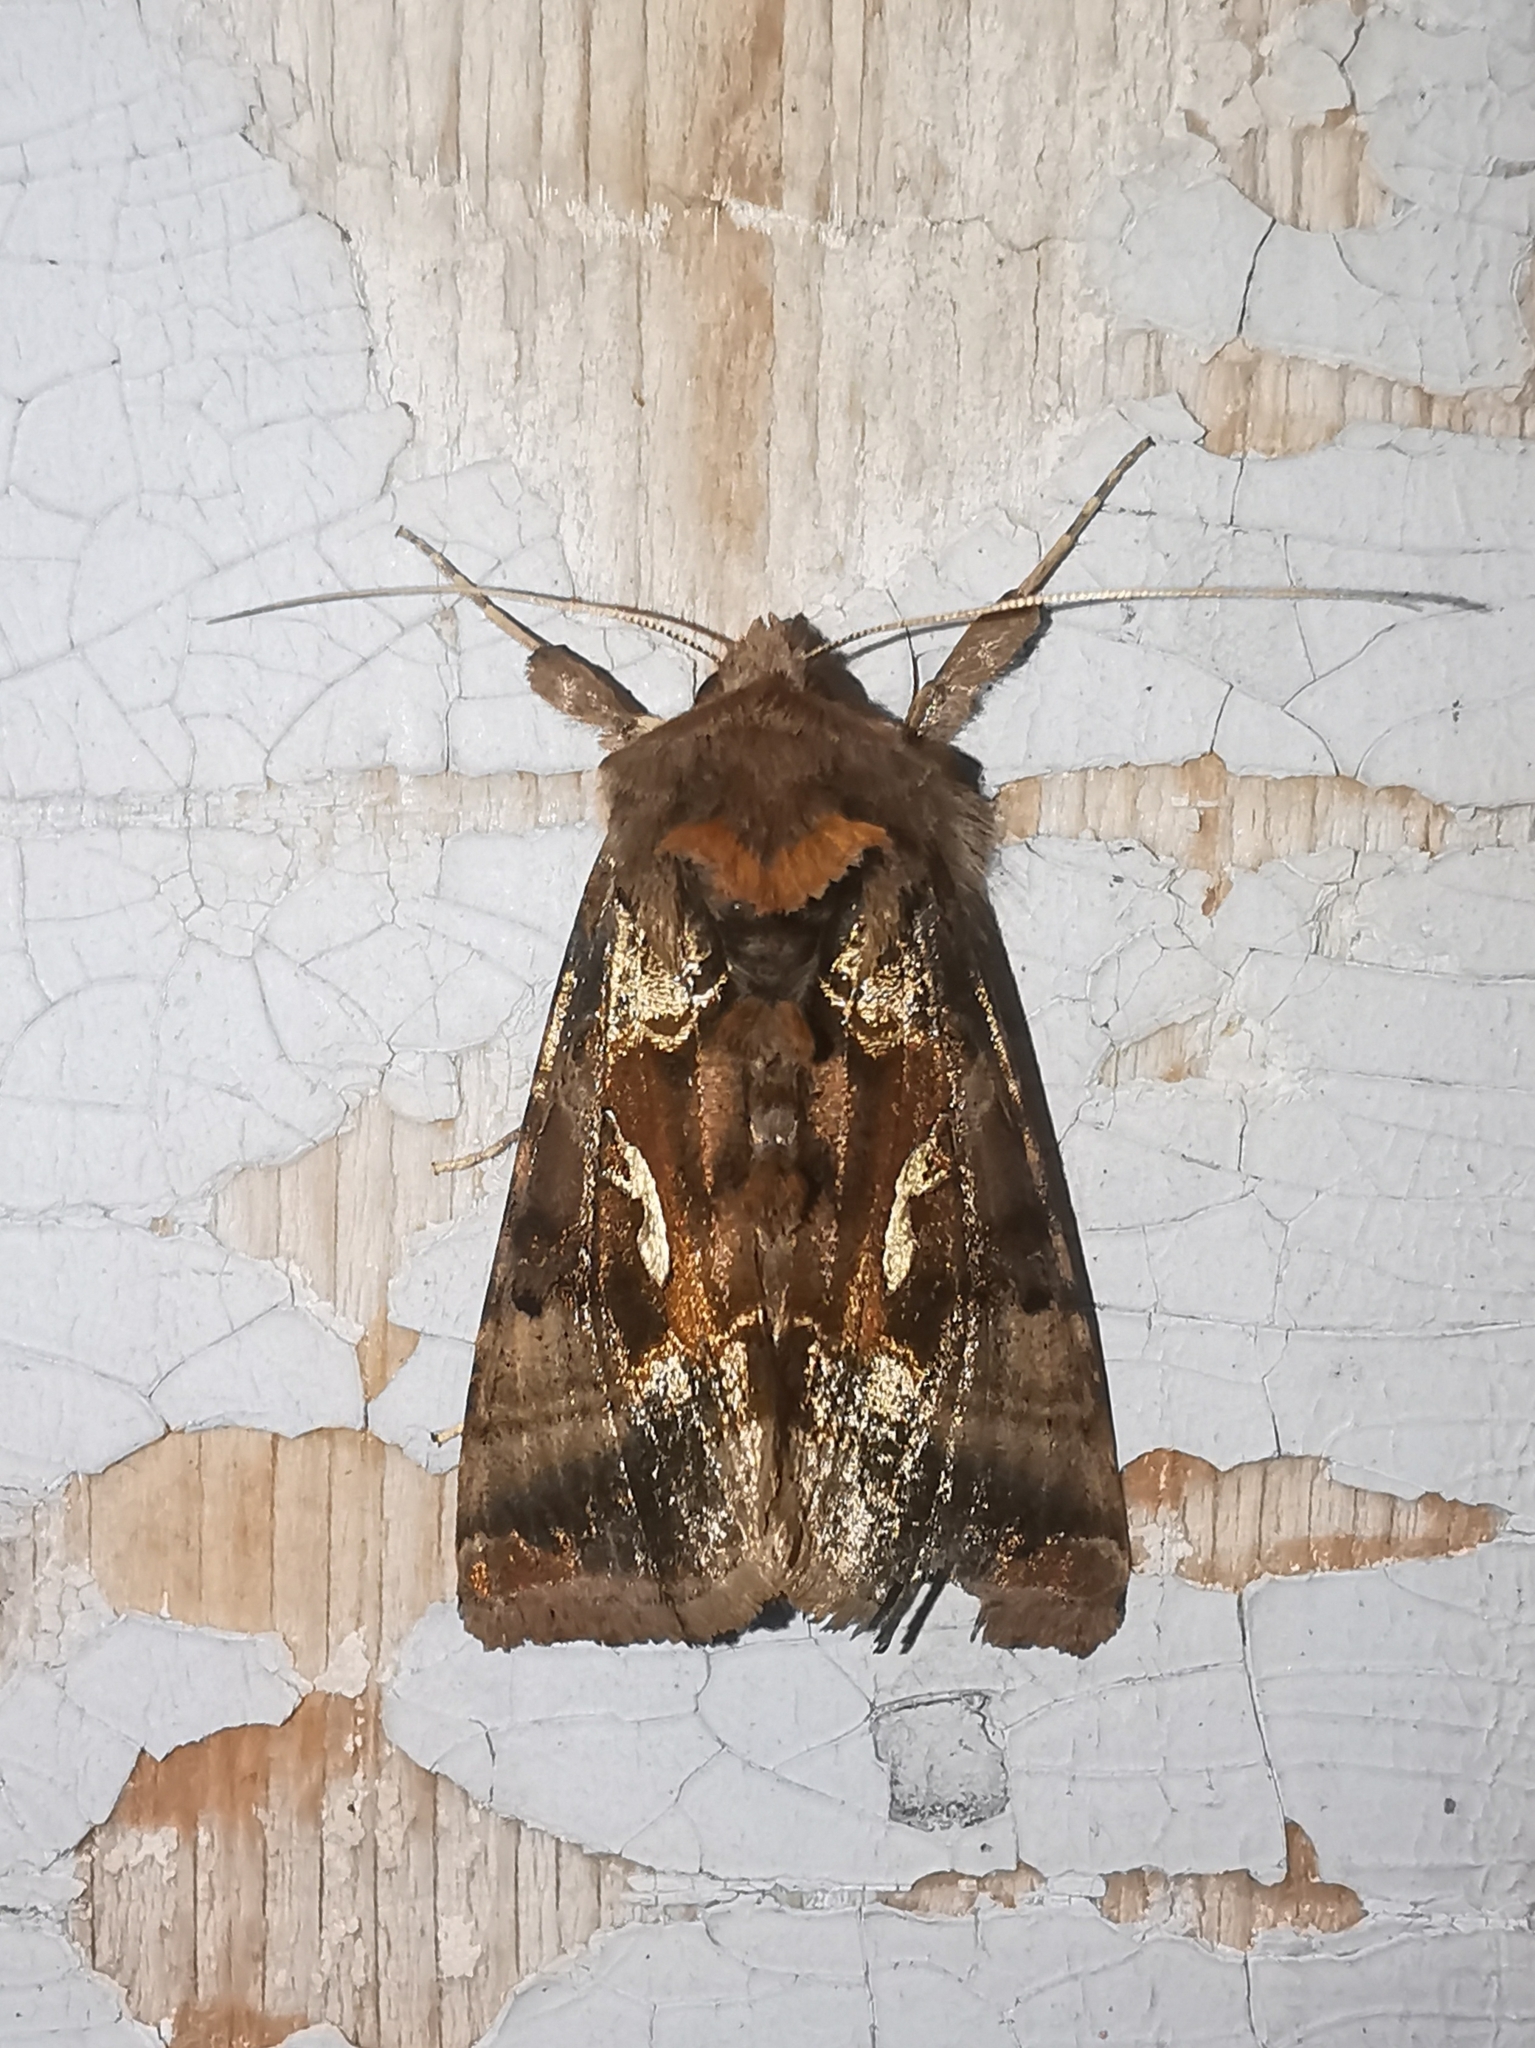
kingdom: Animalia
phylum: Arthropoda
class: Insecta
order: Lepidoptera
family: Noctuidae
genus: Autographa
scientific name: Autographa macrogamma
